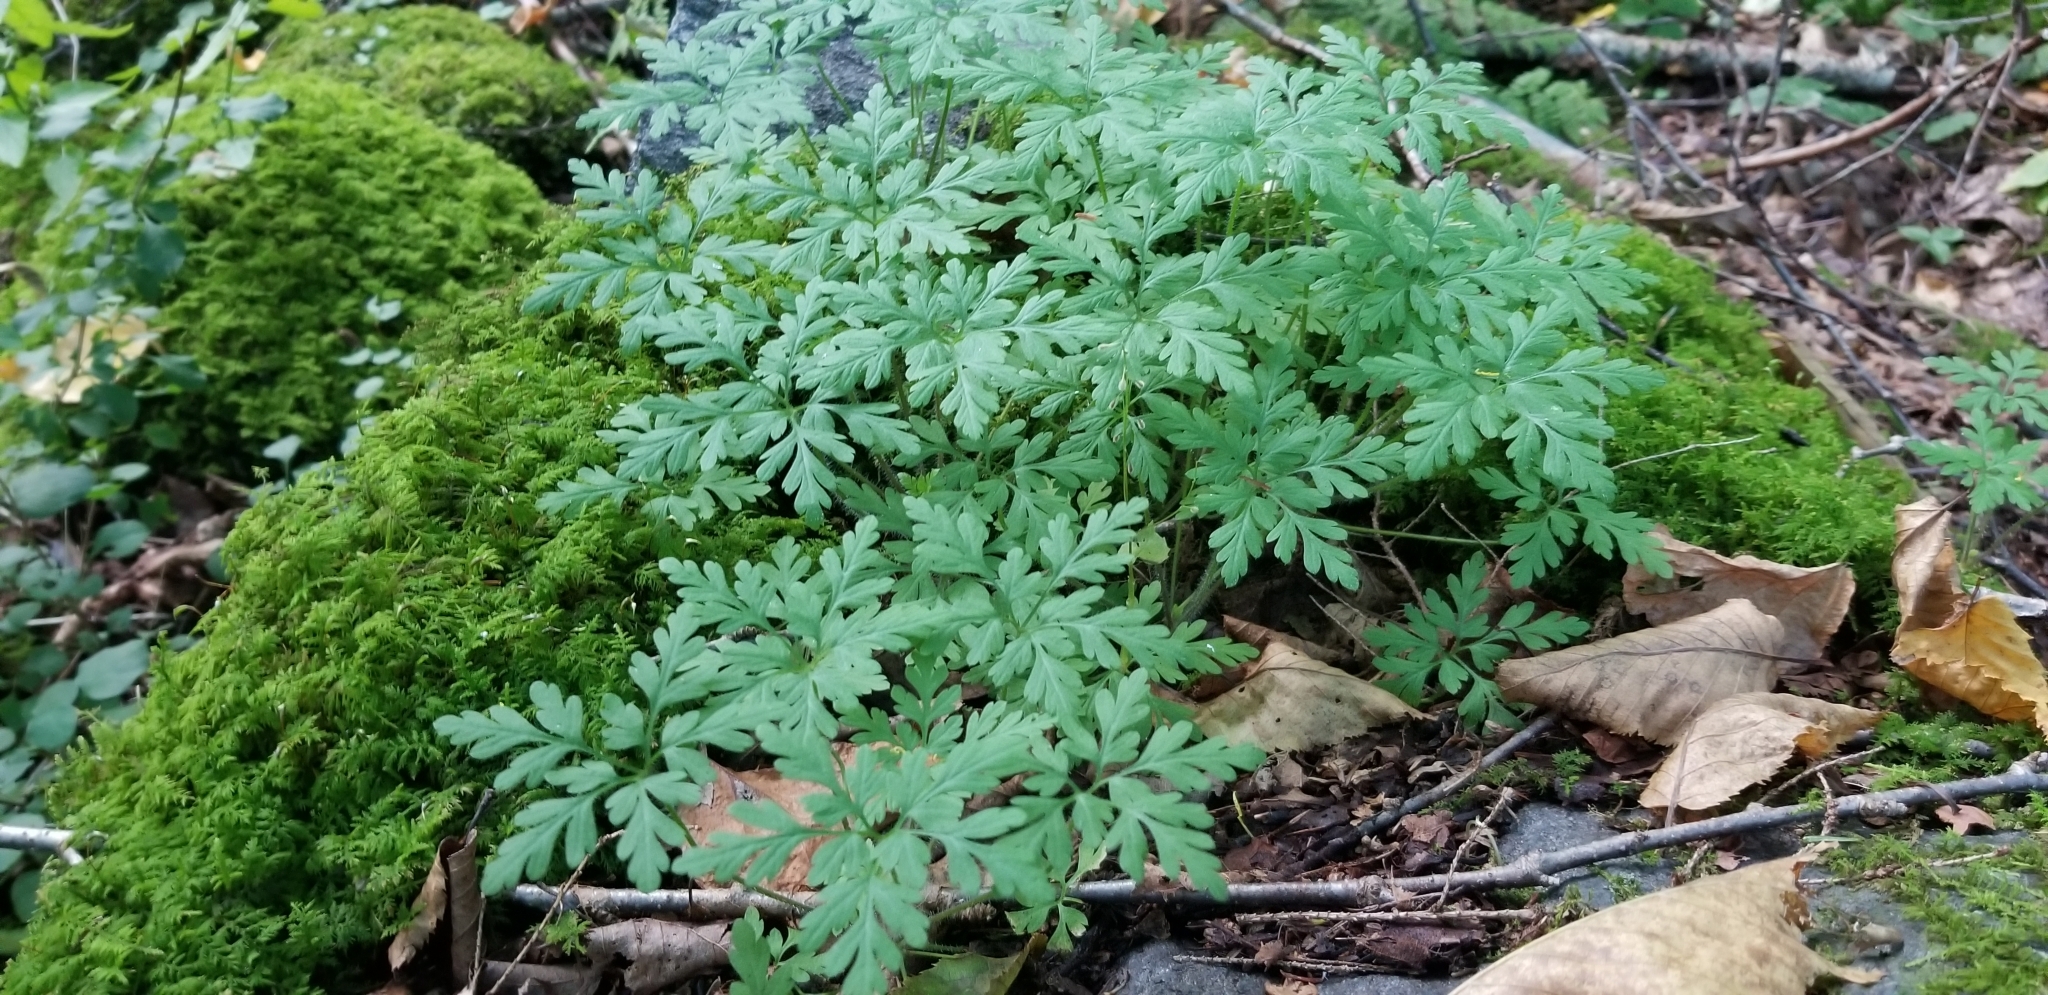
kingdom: Plantae
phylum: Tracheophyta
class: Magnoliopsida
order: Geraniales
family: Geraniaceae
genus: Geranium
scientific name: Geranium robertianum
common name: Herb-robert
